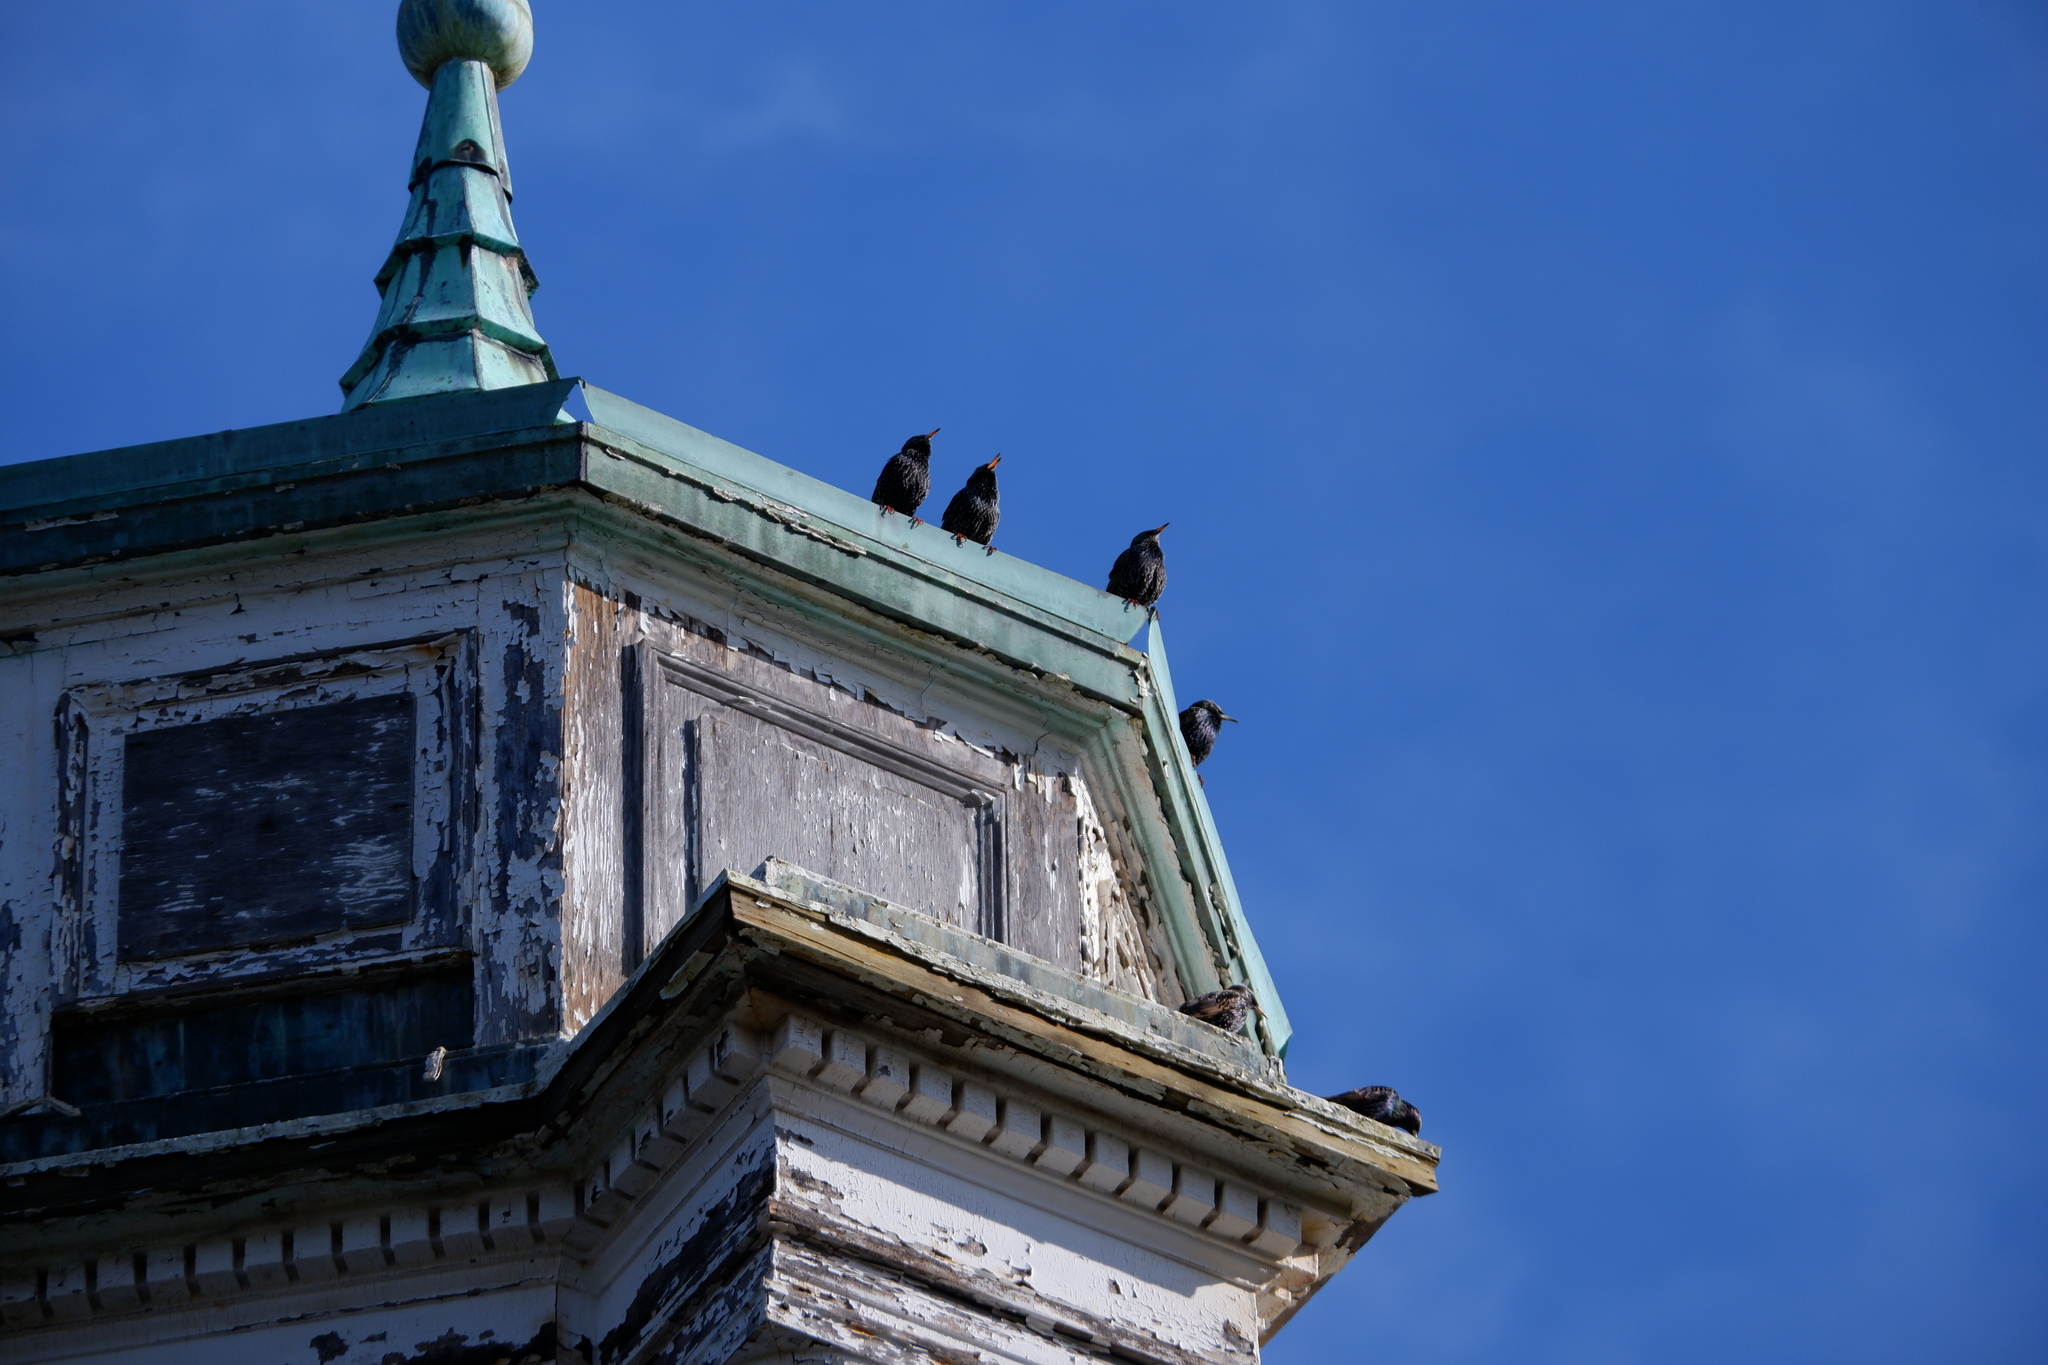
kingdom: Animalia
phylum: Chordata
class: Aves
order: Passeriformes
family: Sturnidae
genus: Sturnus
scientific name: Sturnus vulgaris
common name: Common starling
